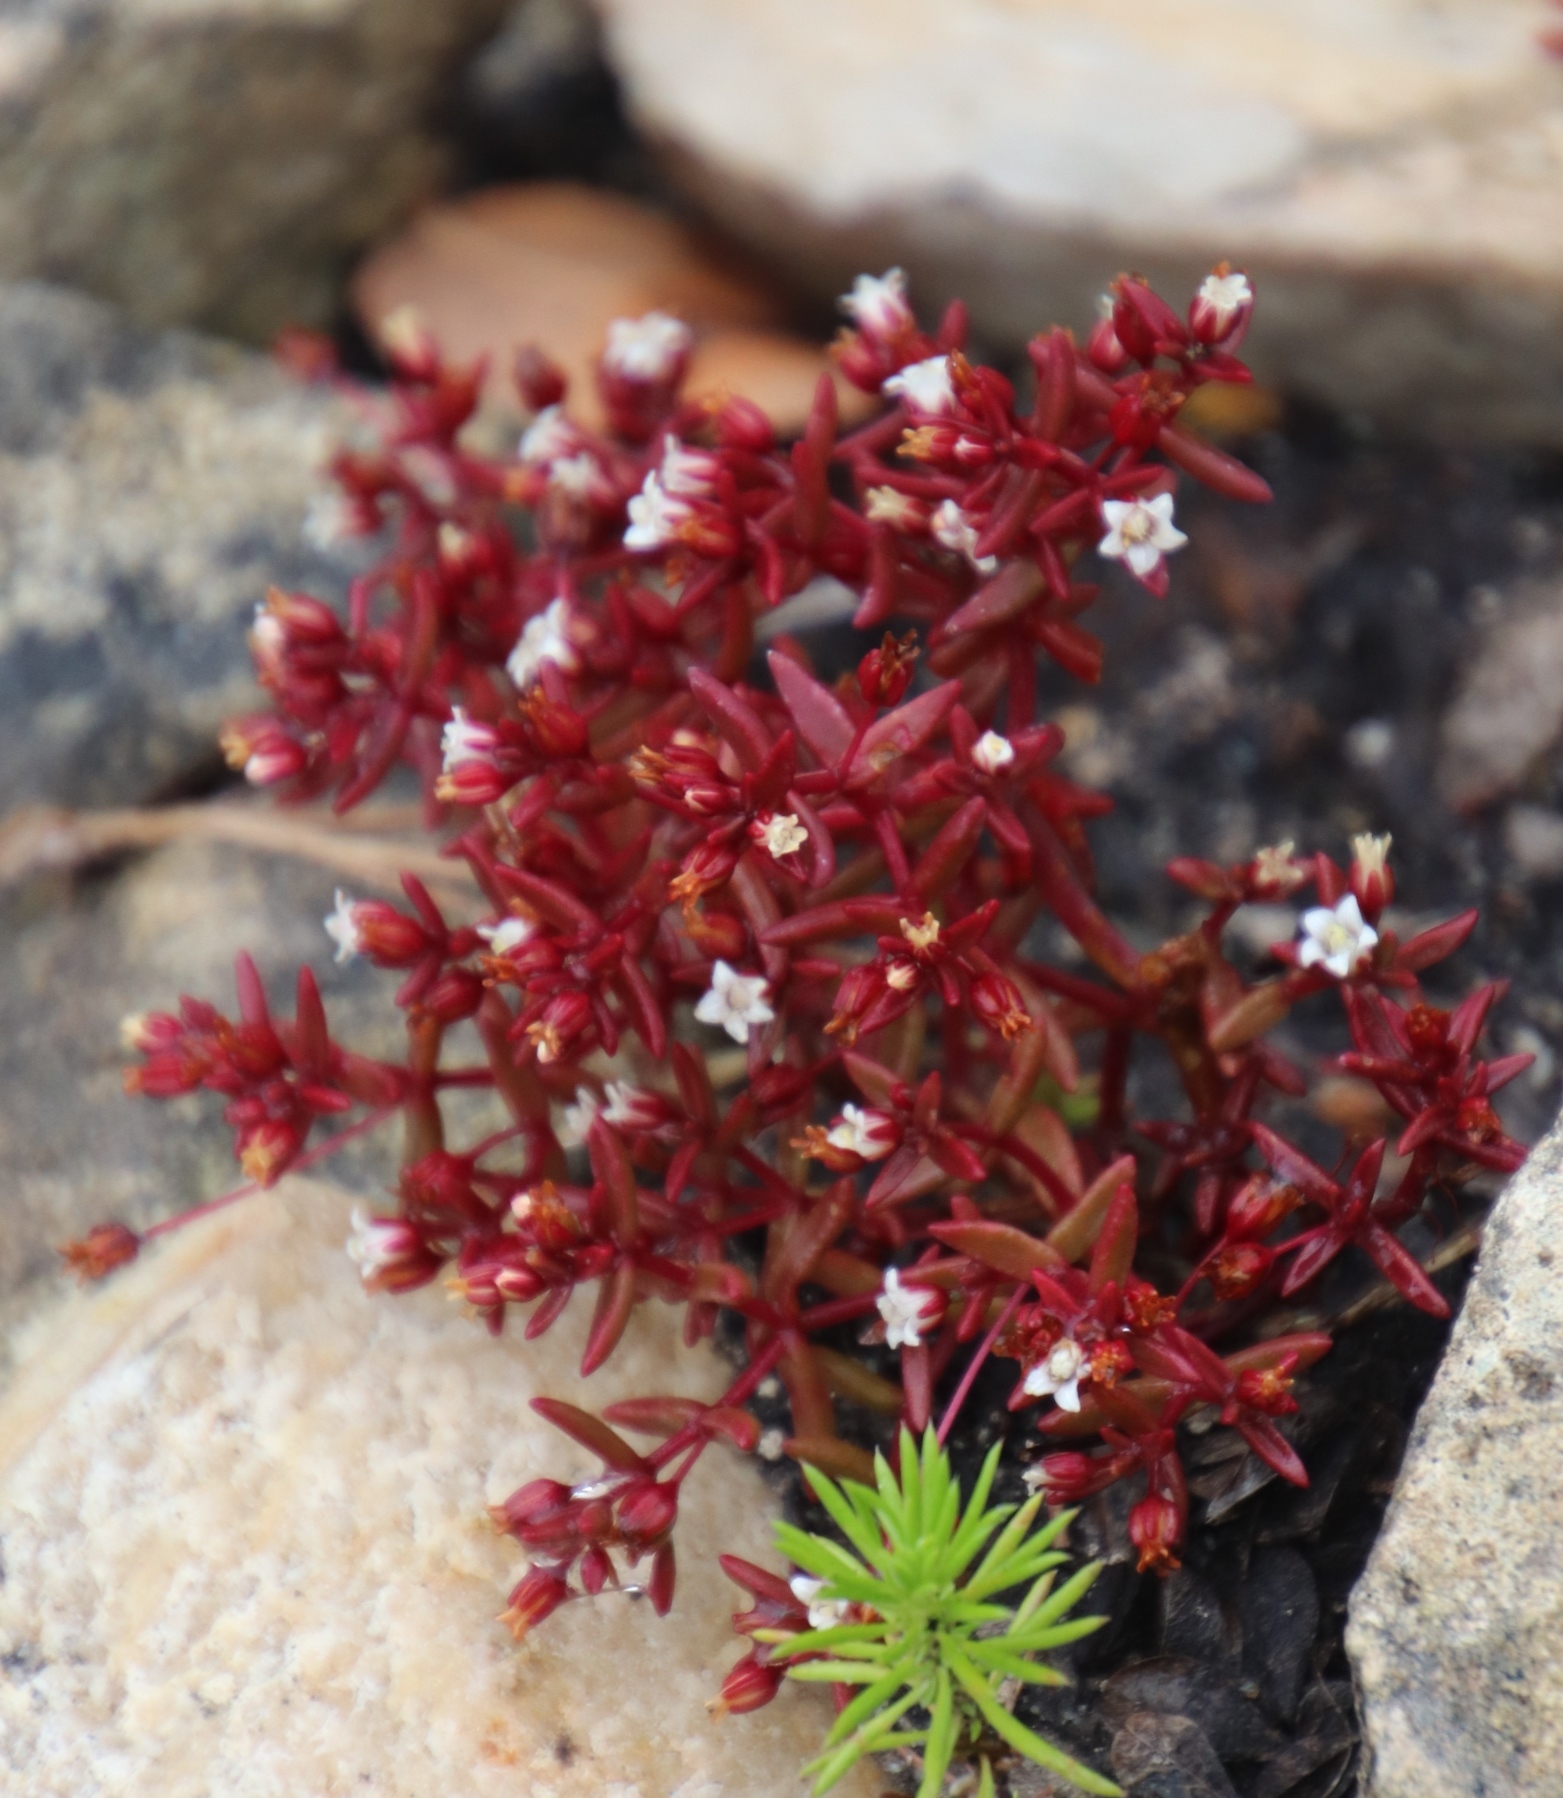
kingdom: Plantae
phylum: Tracheophyta
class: Magnoliopsida
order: Saxifragales
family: Crassulaceae
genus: Crassula
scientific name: Crassula expansa
